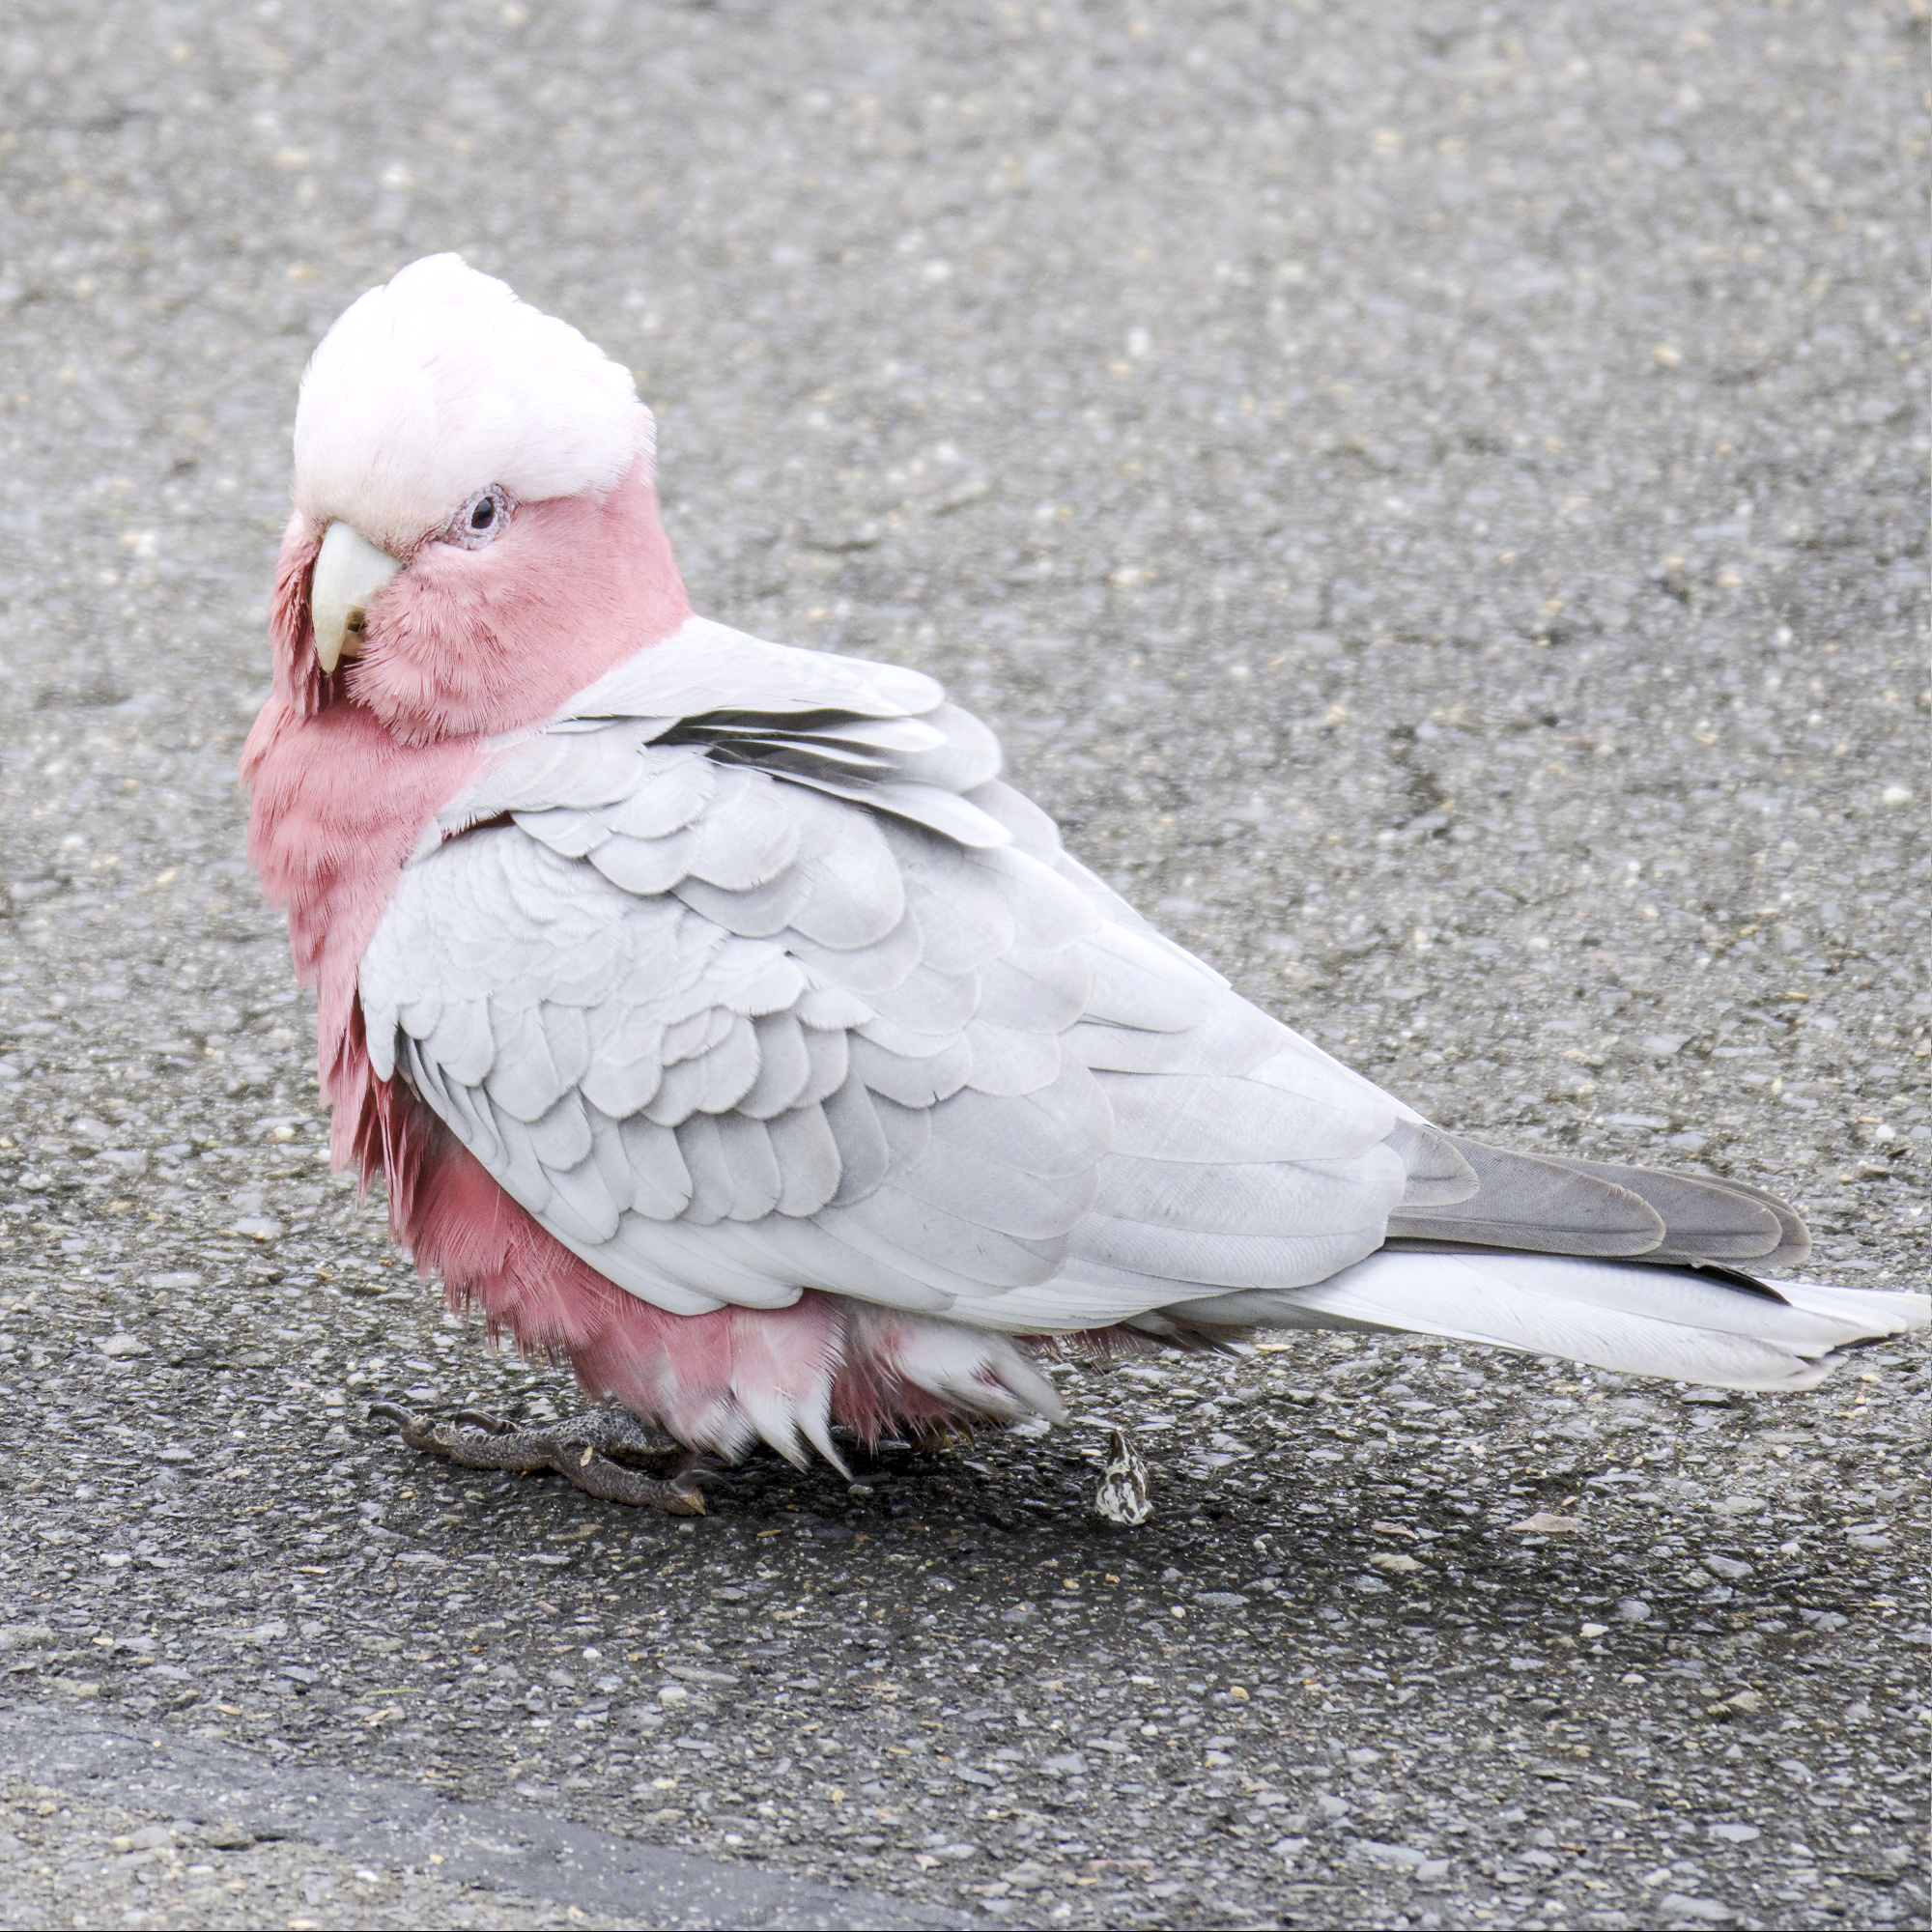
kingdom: Animalia
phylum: Chordata
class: Aves
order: Psittaciformes
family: Psittacidae
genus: Eolophus
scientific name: Eolophus roseicapilla
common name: Galah
